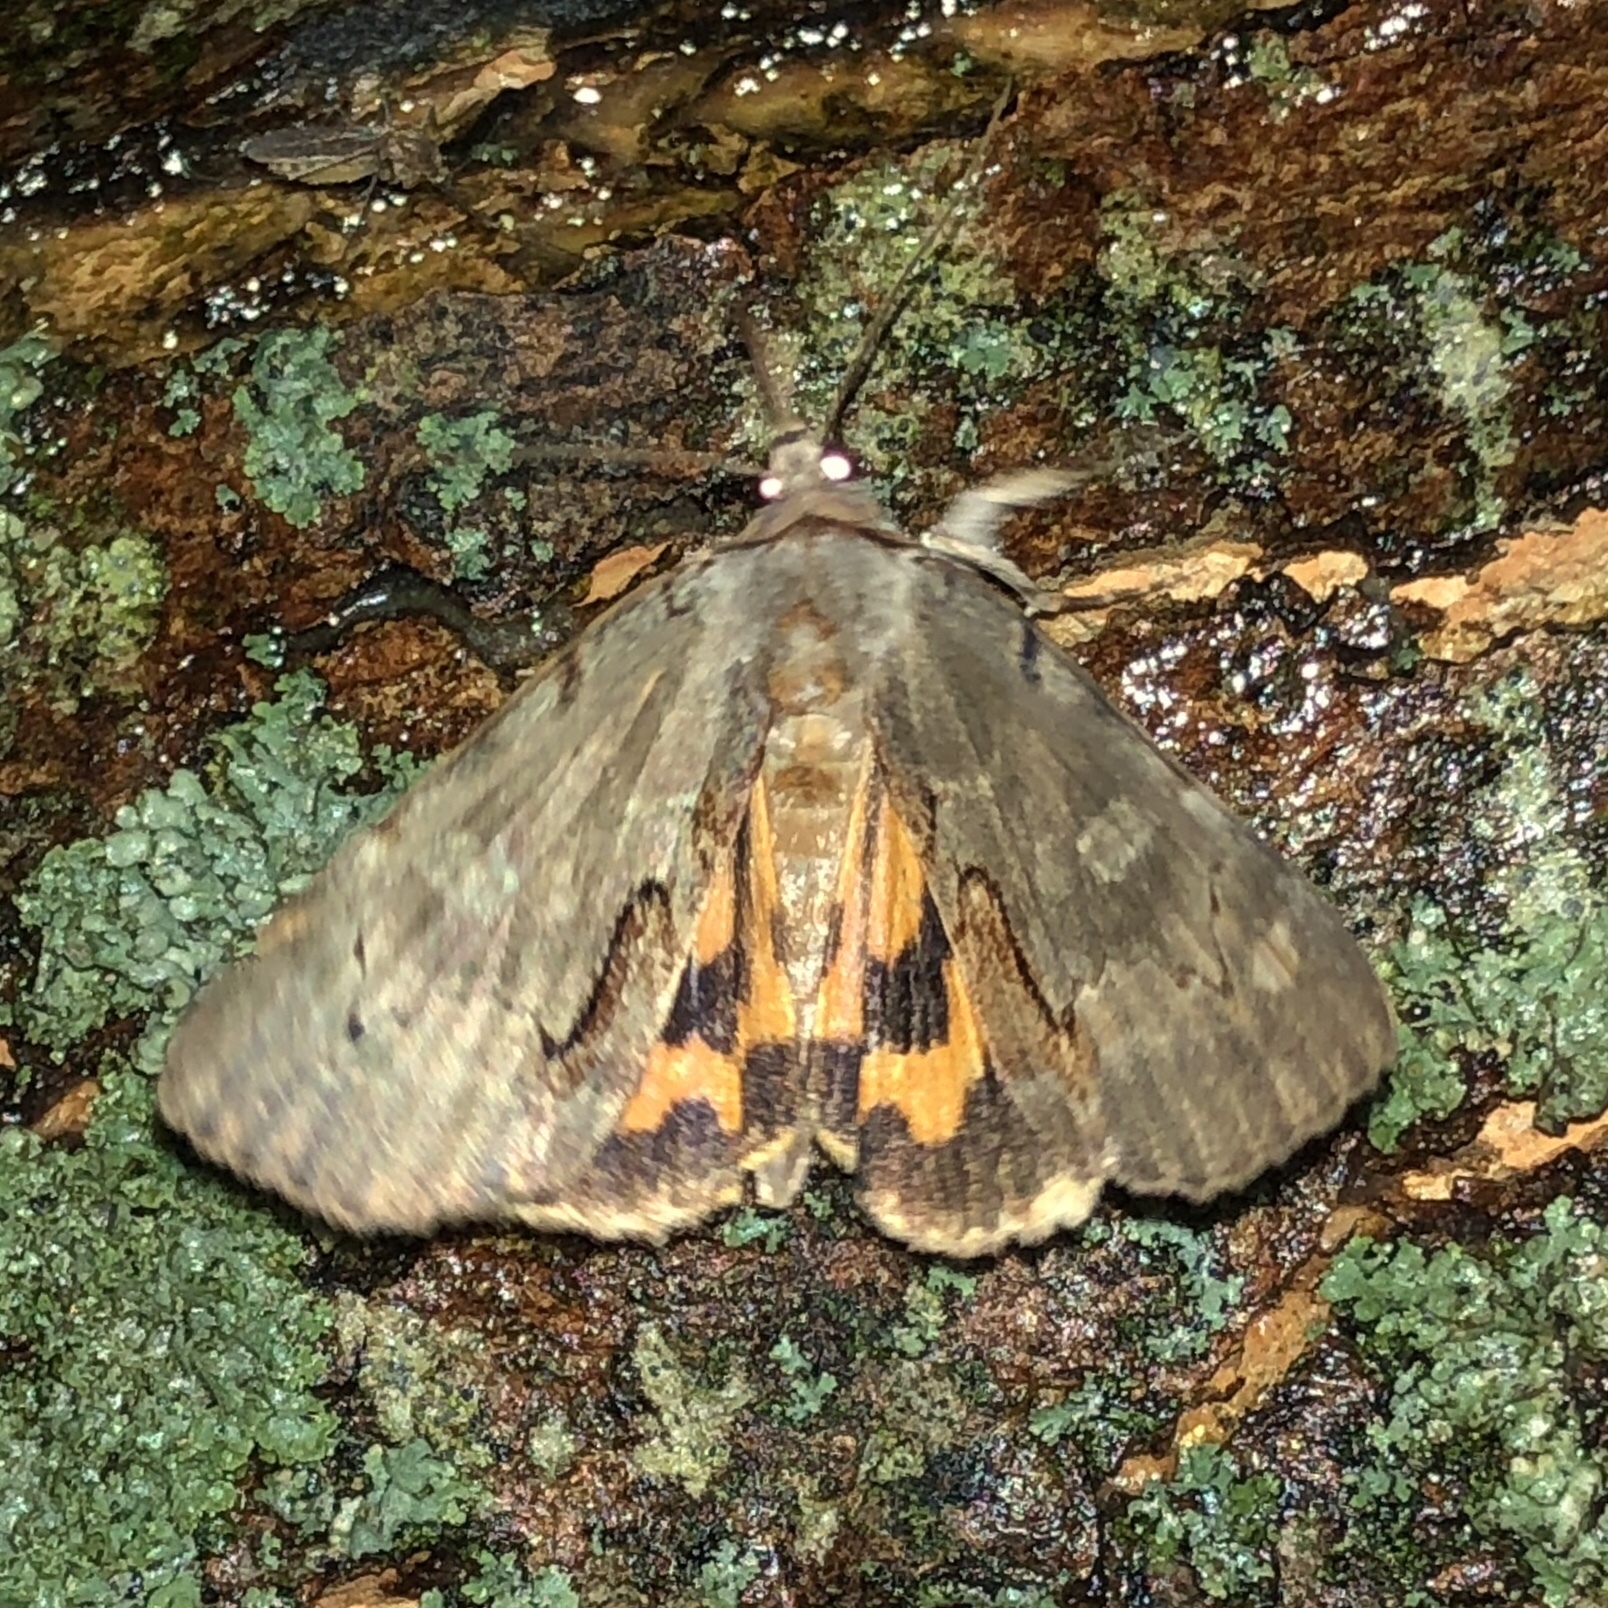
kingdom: Animalia
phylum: Arthropoda
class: Insecta
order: Lepidoptera
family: Erebidae
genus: Catocala
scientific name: Catocala grynea
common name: Woody underwing
